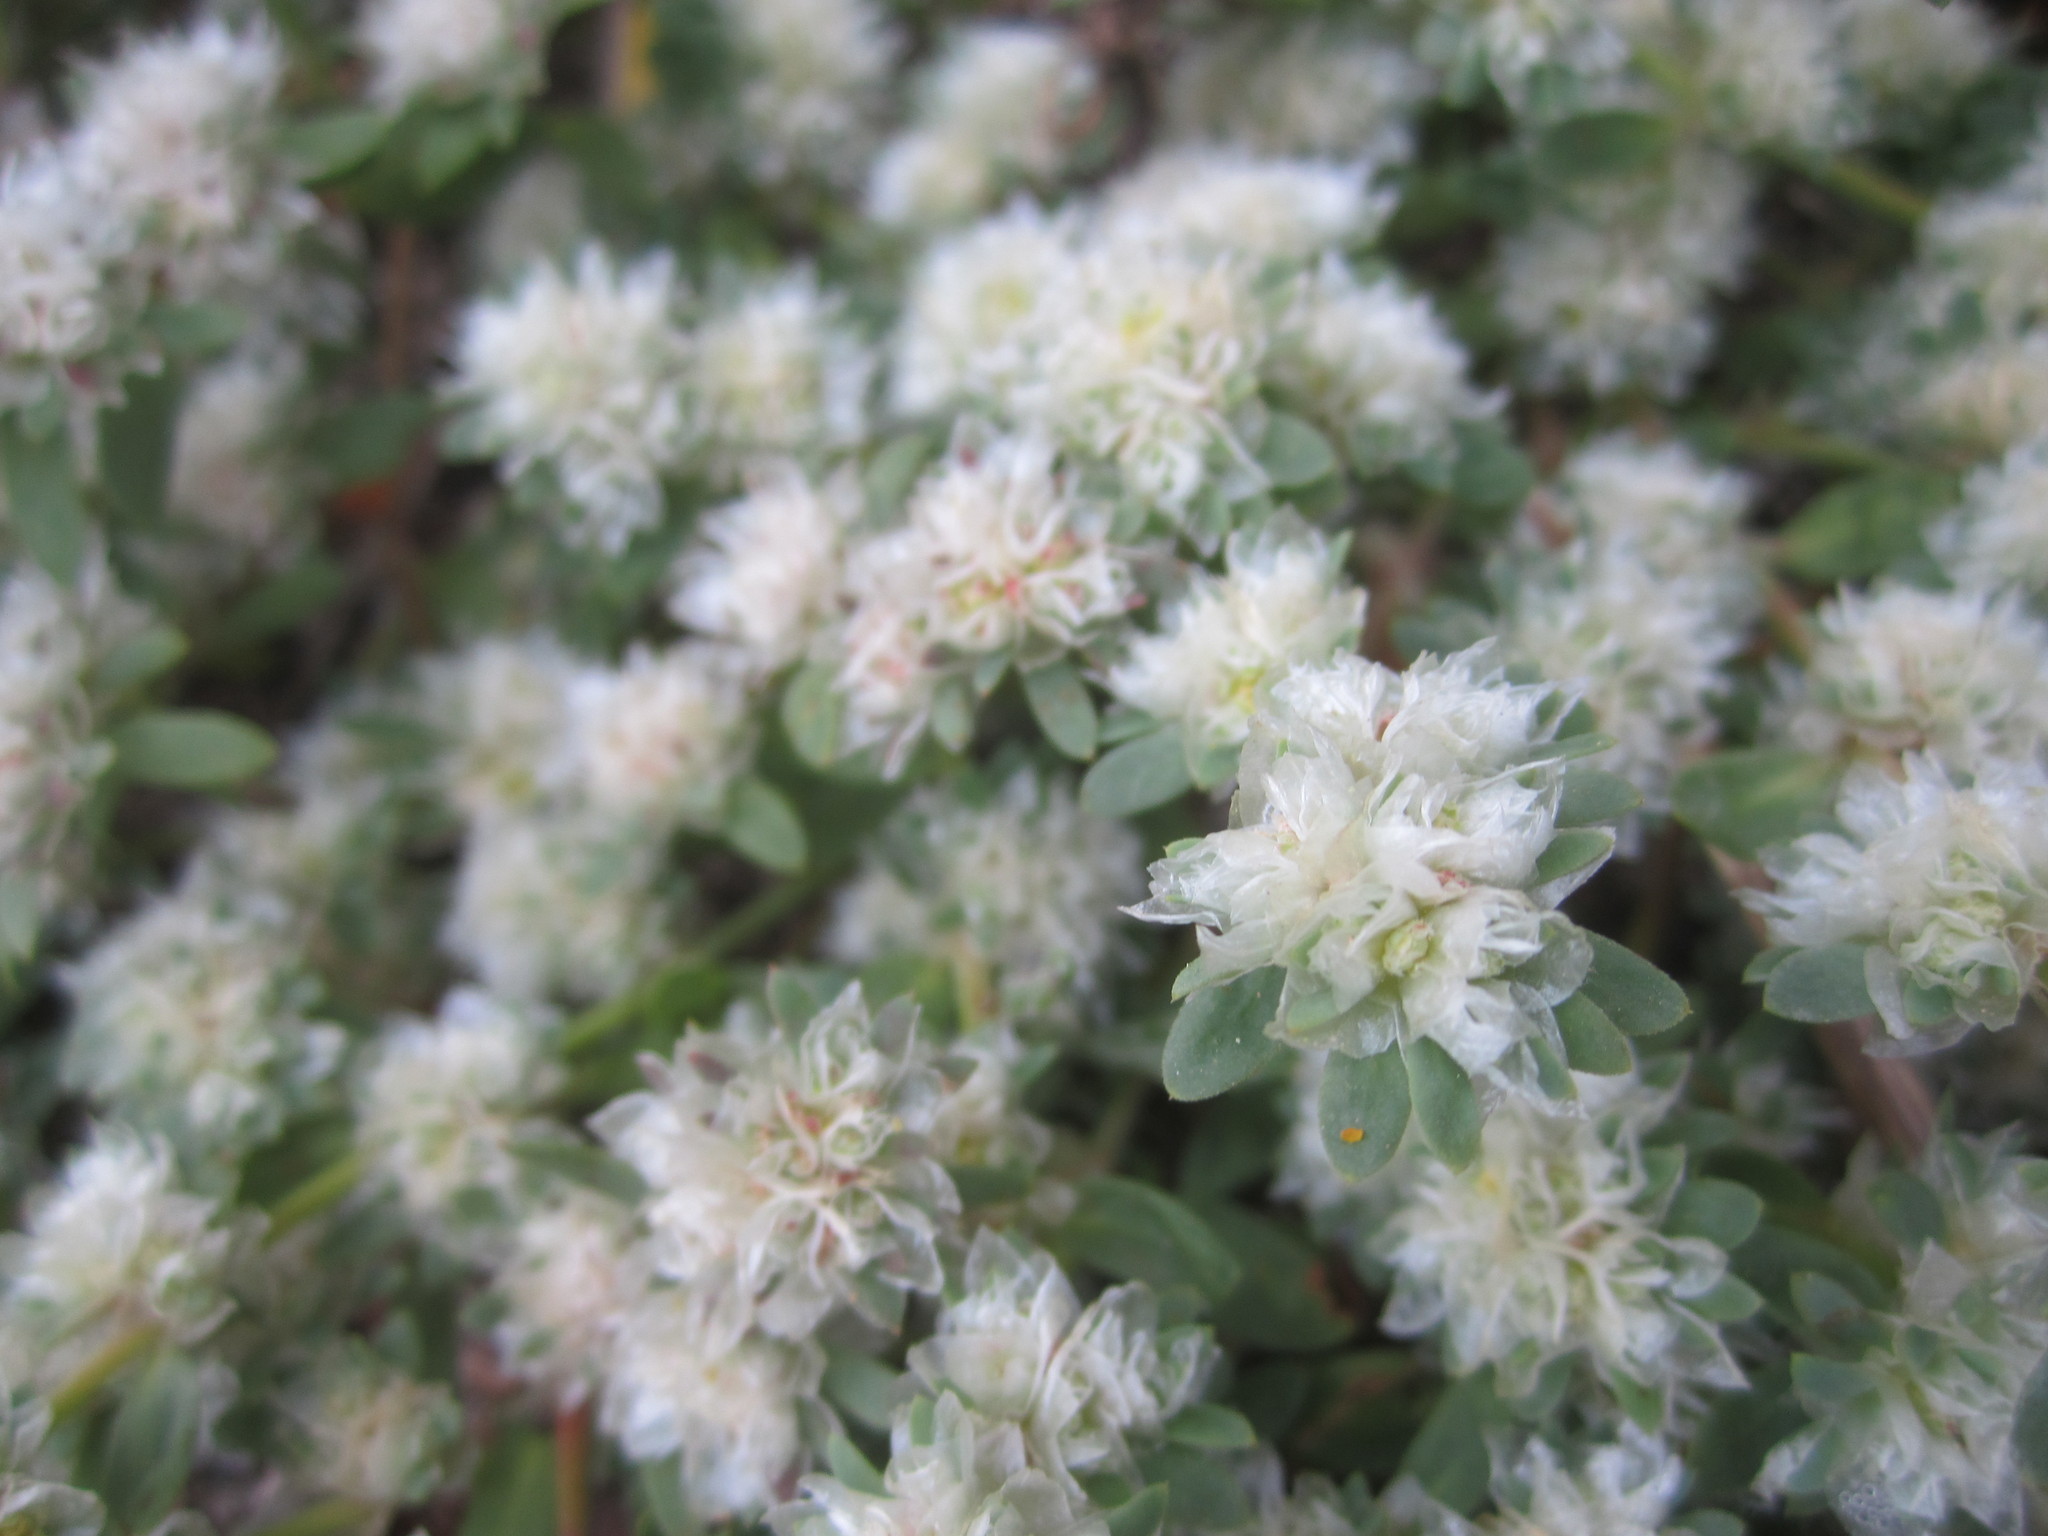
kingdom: Plantae
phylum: Tracheophyta
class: Magnoliopsida
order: Caryophyllales
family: Caryophyllaceae
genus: Paronychia
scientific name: Paronychia argentea
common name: Silver nailroot
